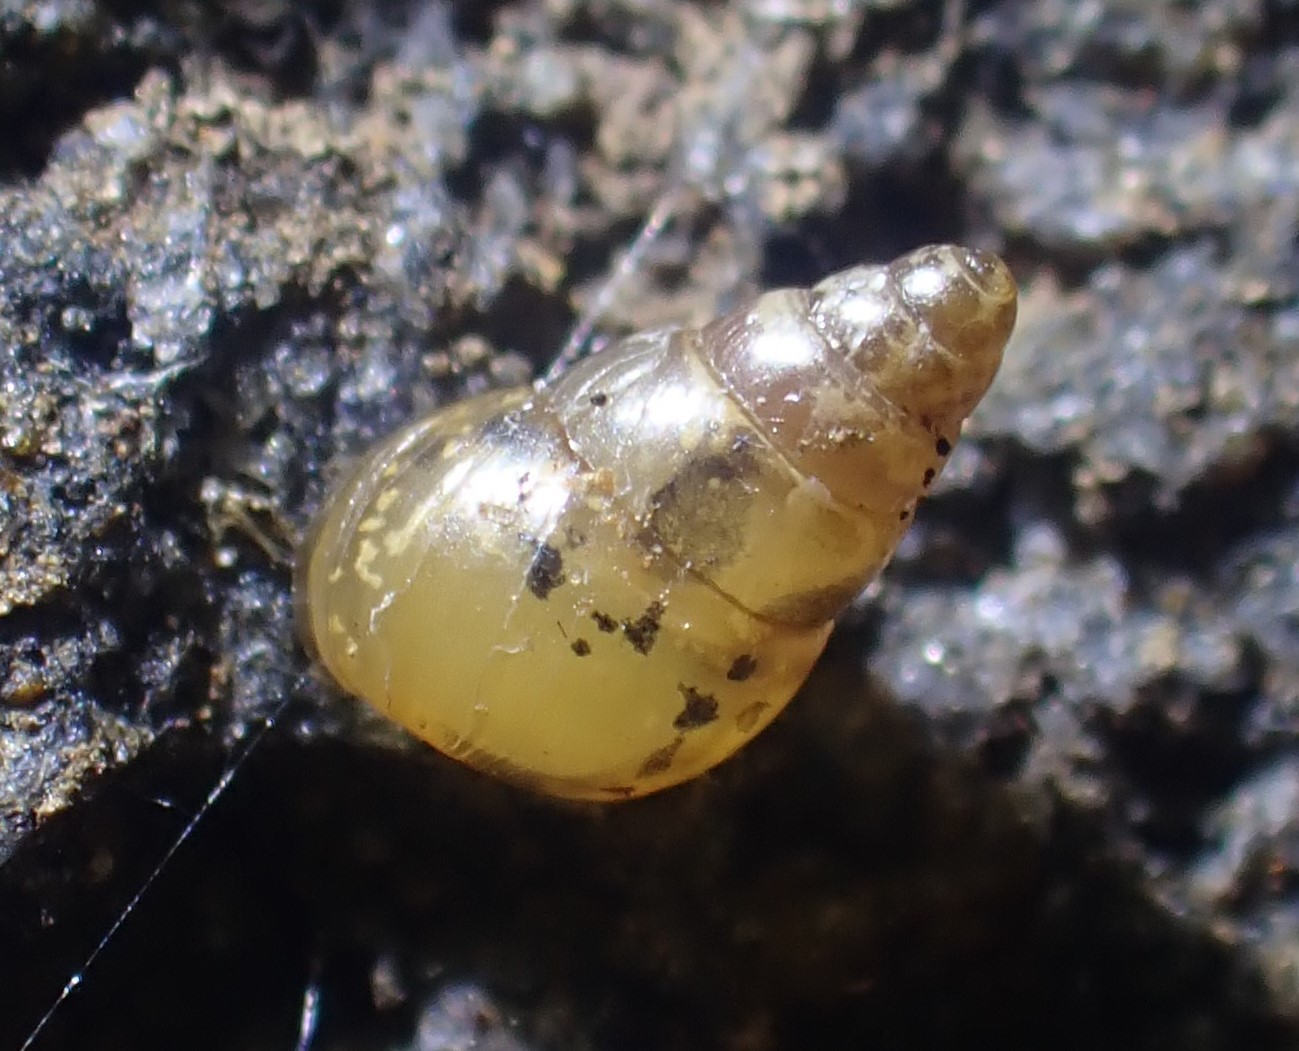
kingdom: Animalia
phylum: Mollusca
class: Gastropoda
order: Stylommatophora
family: Achatinellidae
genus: Tornatellides
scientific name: Tornatellides subperforatus
